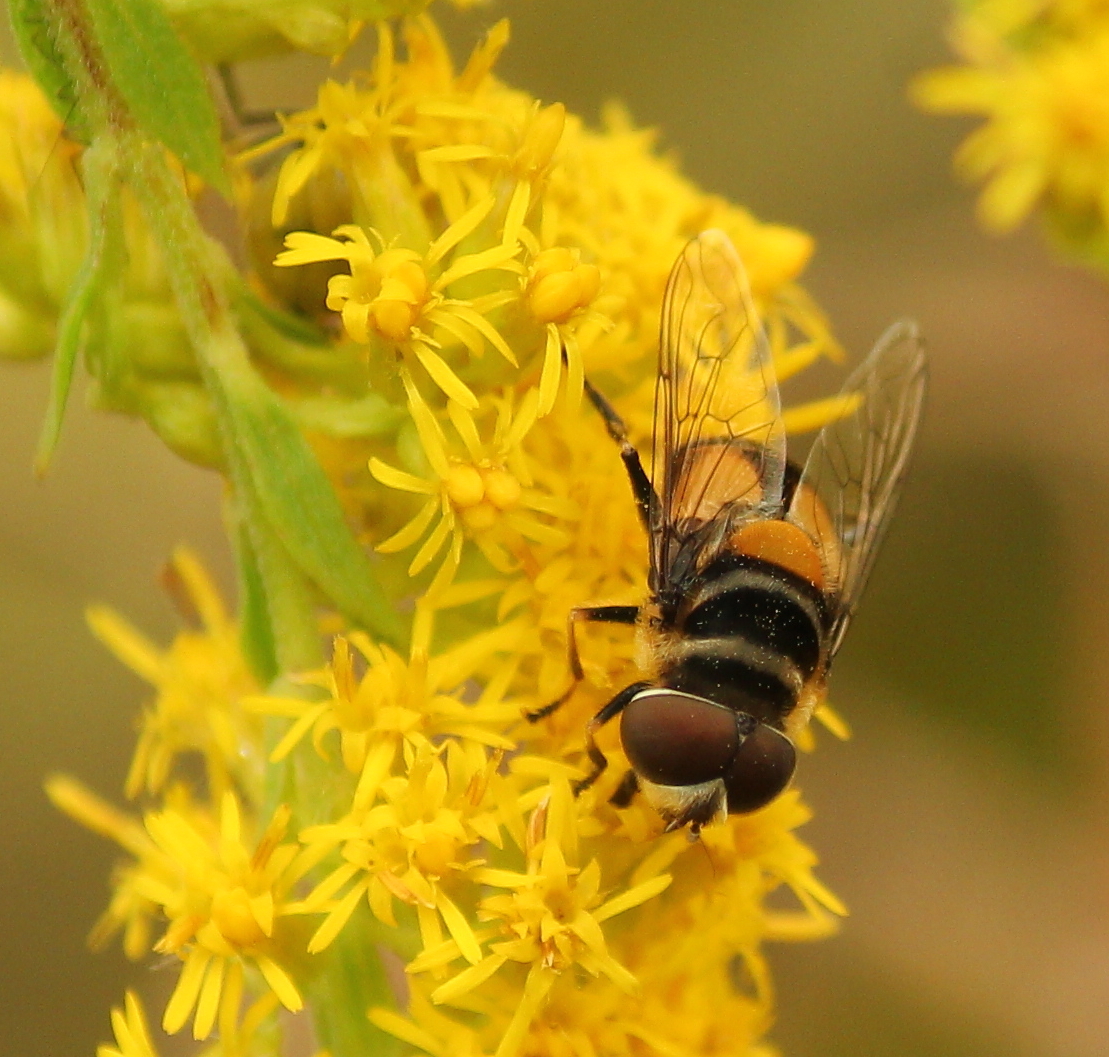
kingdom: Animalia
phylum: Arthropoda
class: Insecta
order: Diptera
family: Syrphidae
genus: Palpada
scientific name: Palpada agrorum
